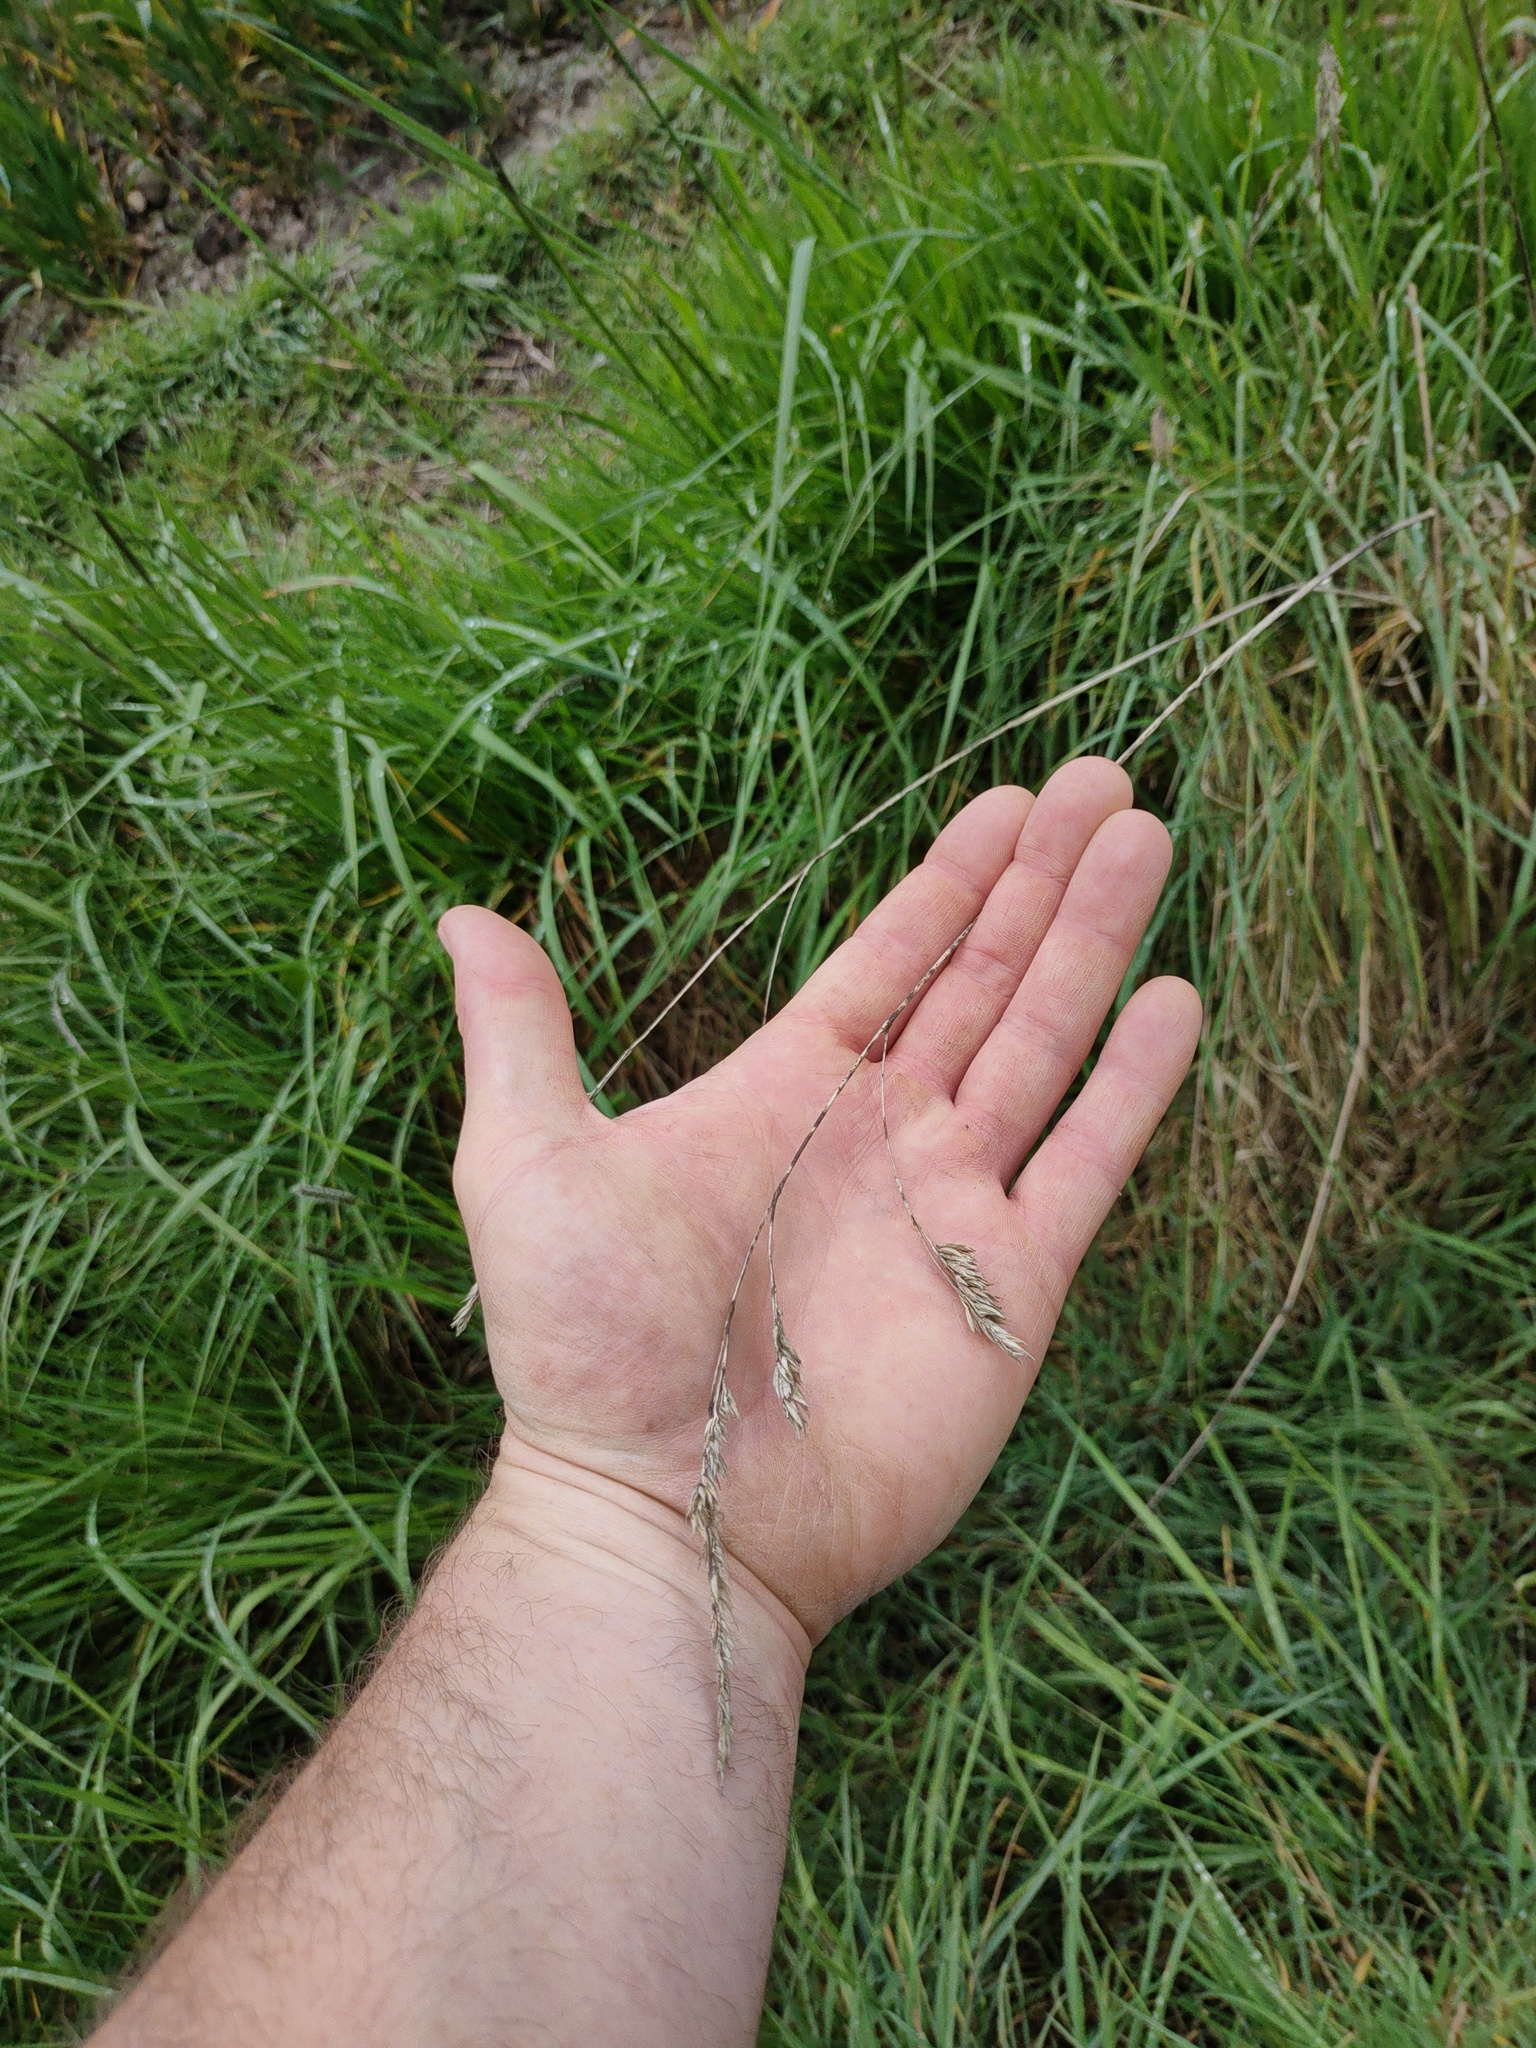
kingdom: Plantae
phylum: Tracheophyta
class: Liliopsida
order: Poales
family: Poaceae
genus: Dactylis
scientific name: Dactylis glomerata
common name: Orchardgrass
